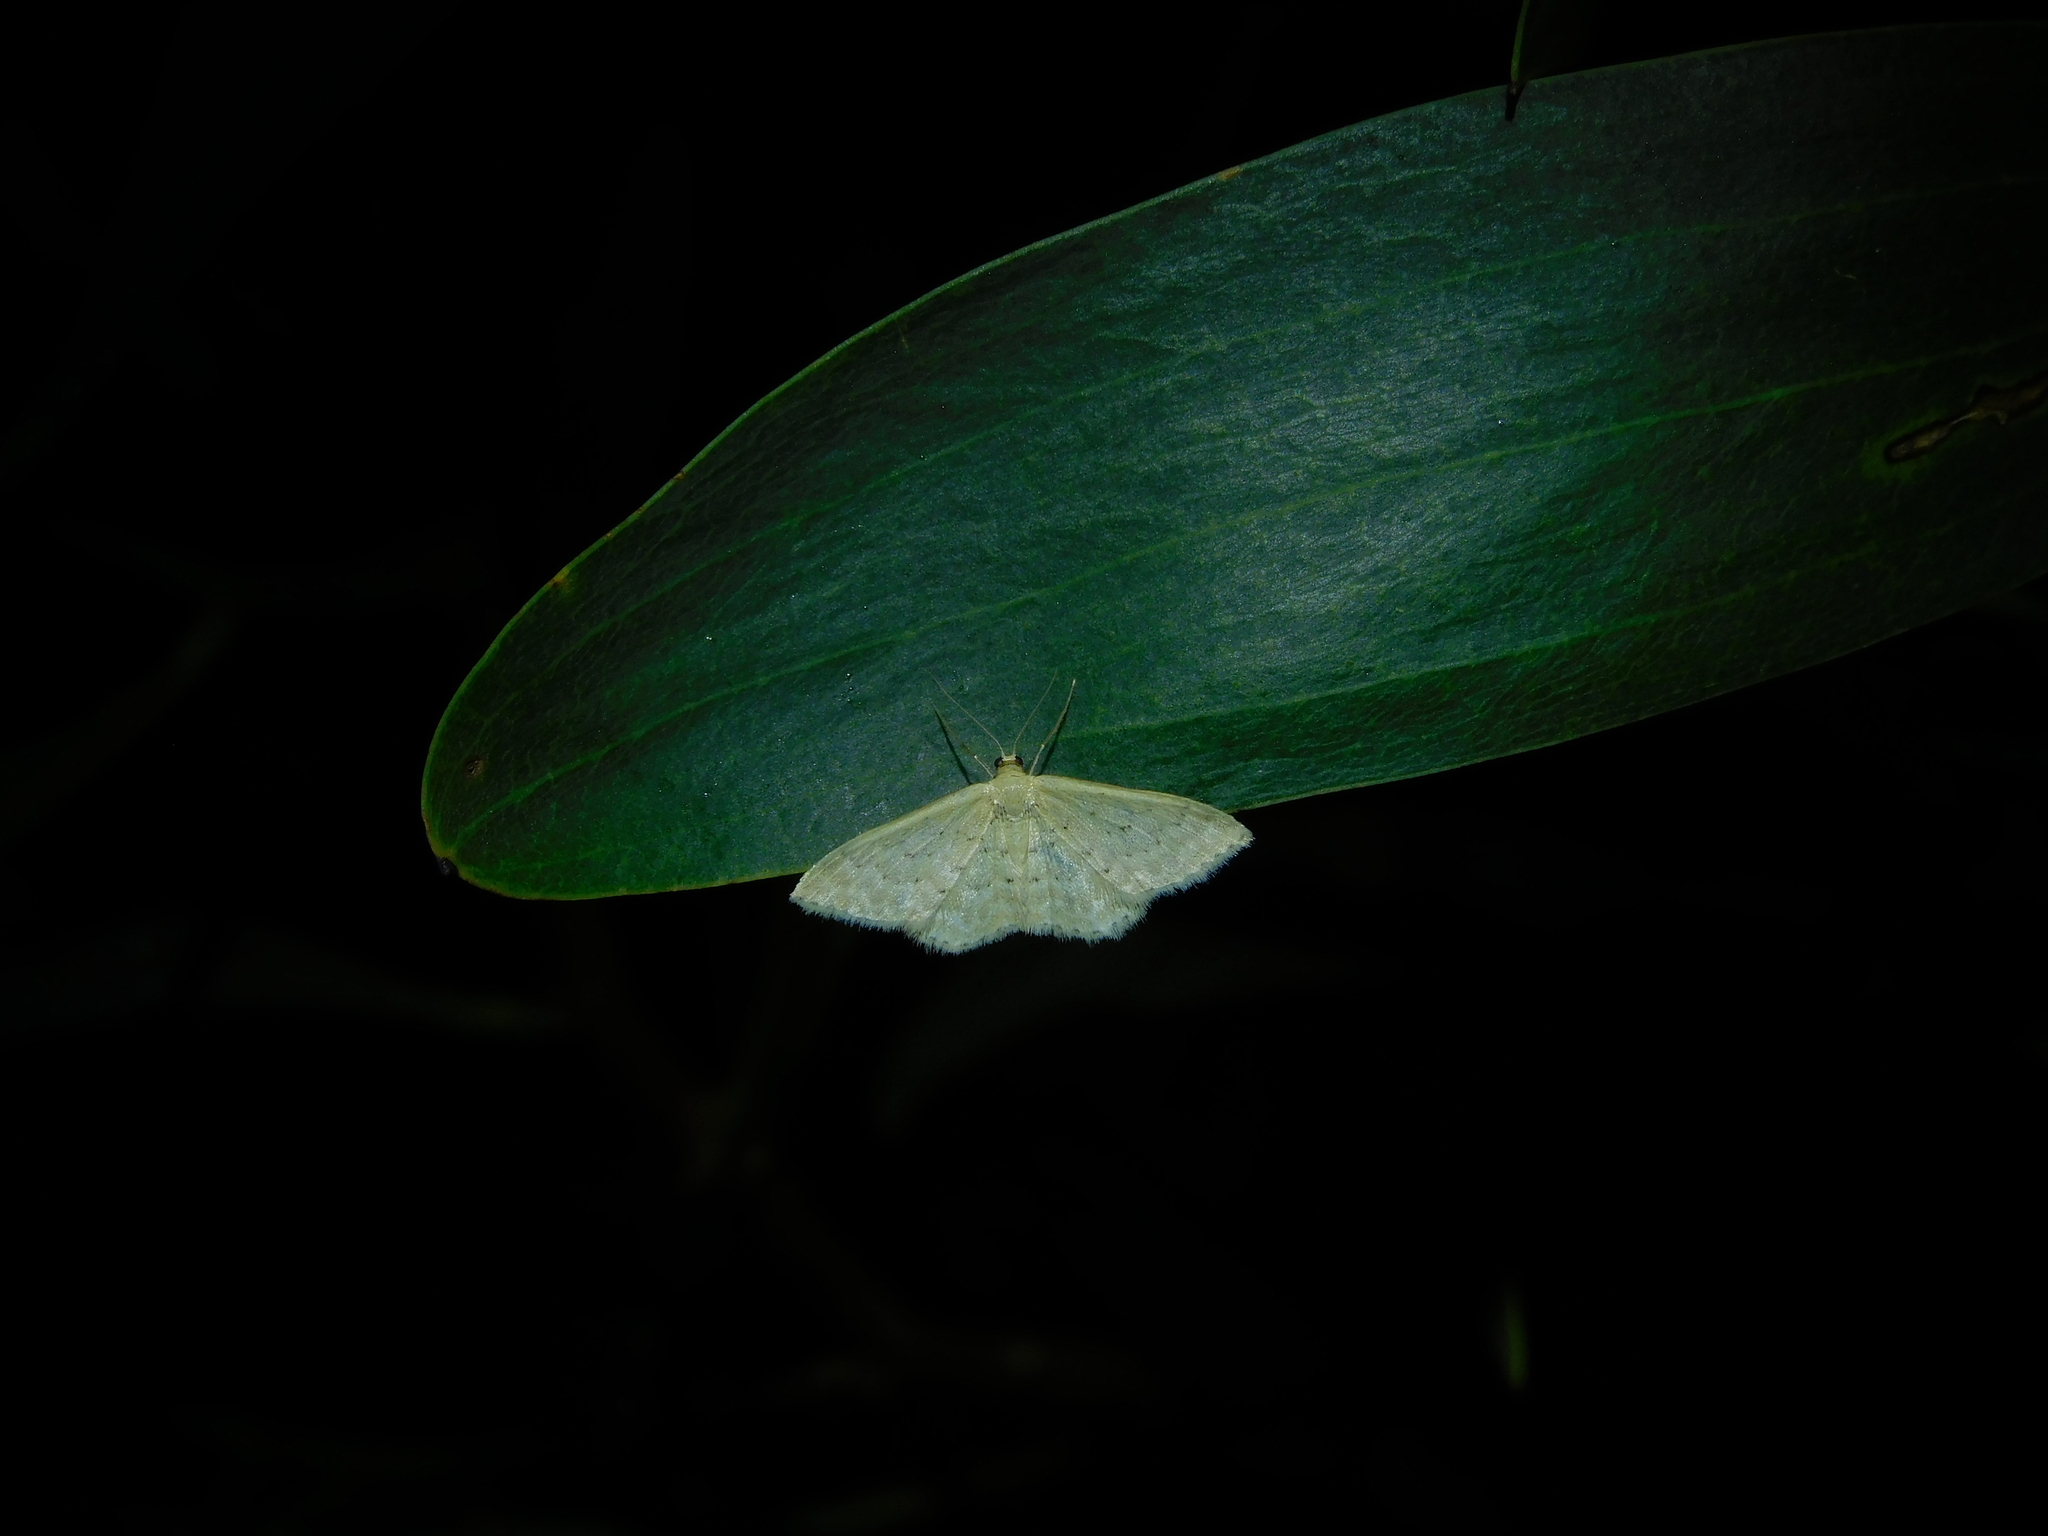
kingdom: Animalia
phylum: Arthropoda
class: Insecta
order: Lepidoptera
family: Geometridae
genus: Idaea
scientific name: Idaea philocosma
